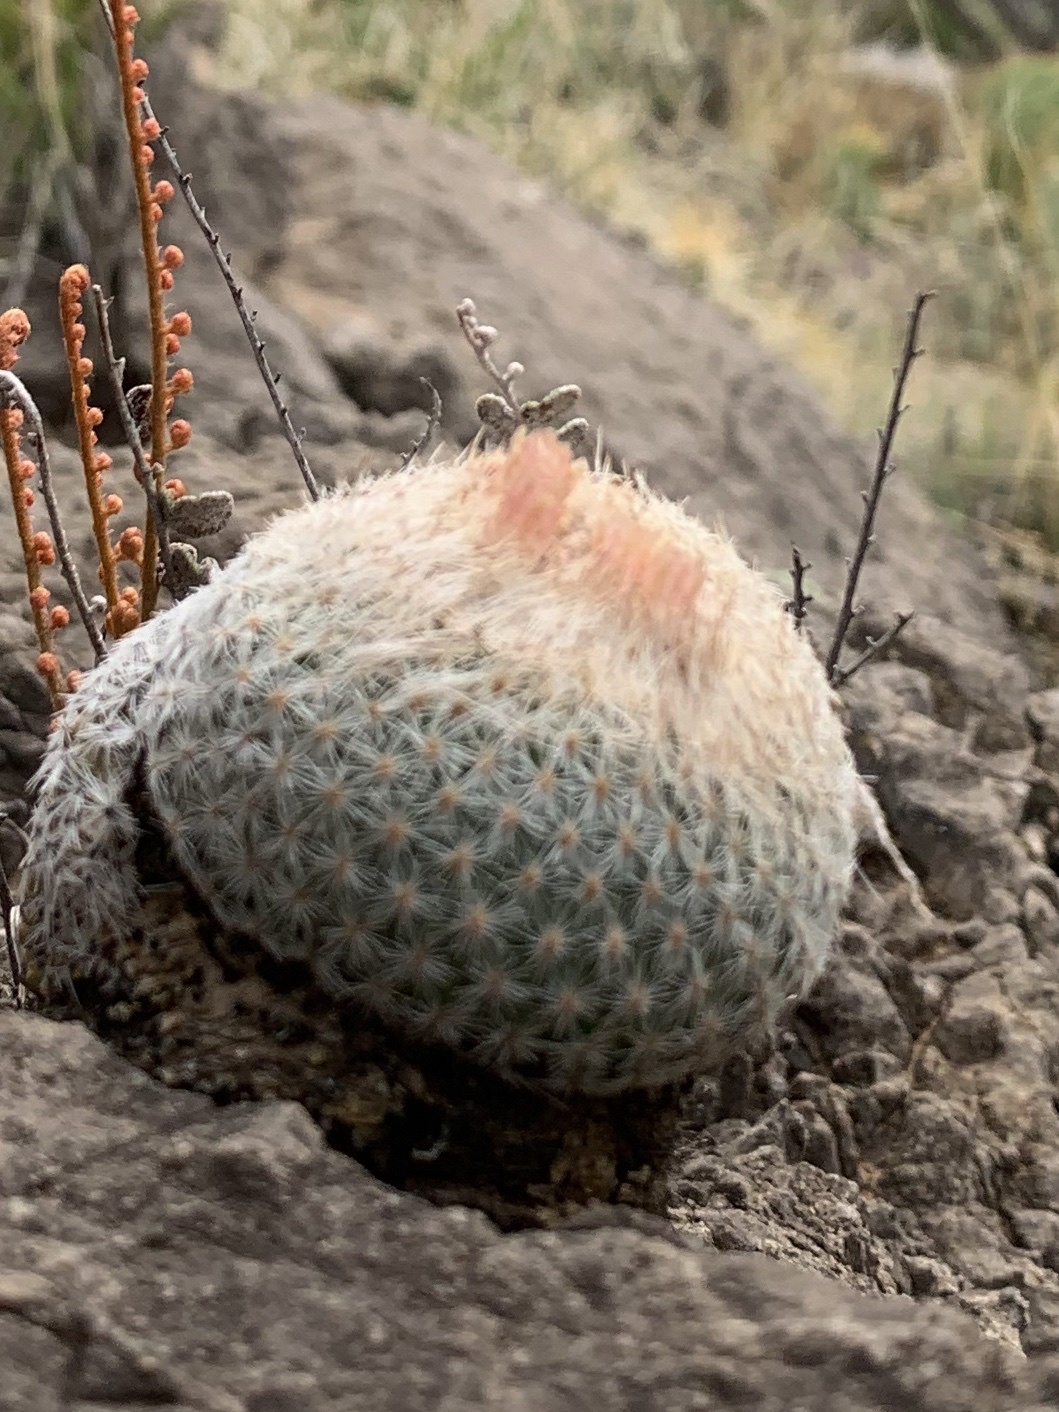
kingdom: Plantae
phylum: Tracheophyta
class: Magnoliopsida
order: Caryophyllales
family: Cactaceae
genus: Epithelantha
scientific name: Epithelantha micromeris
